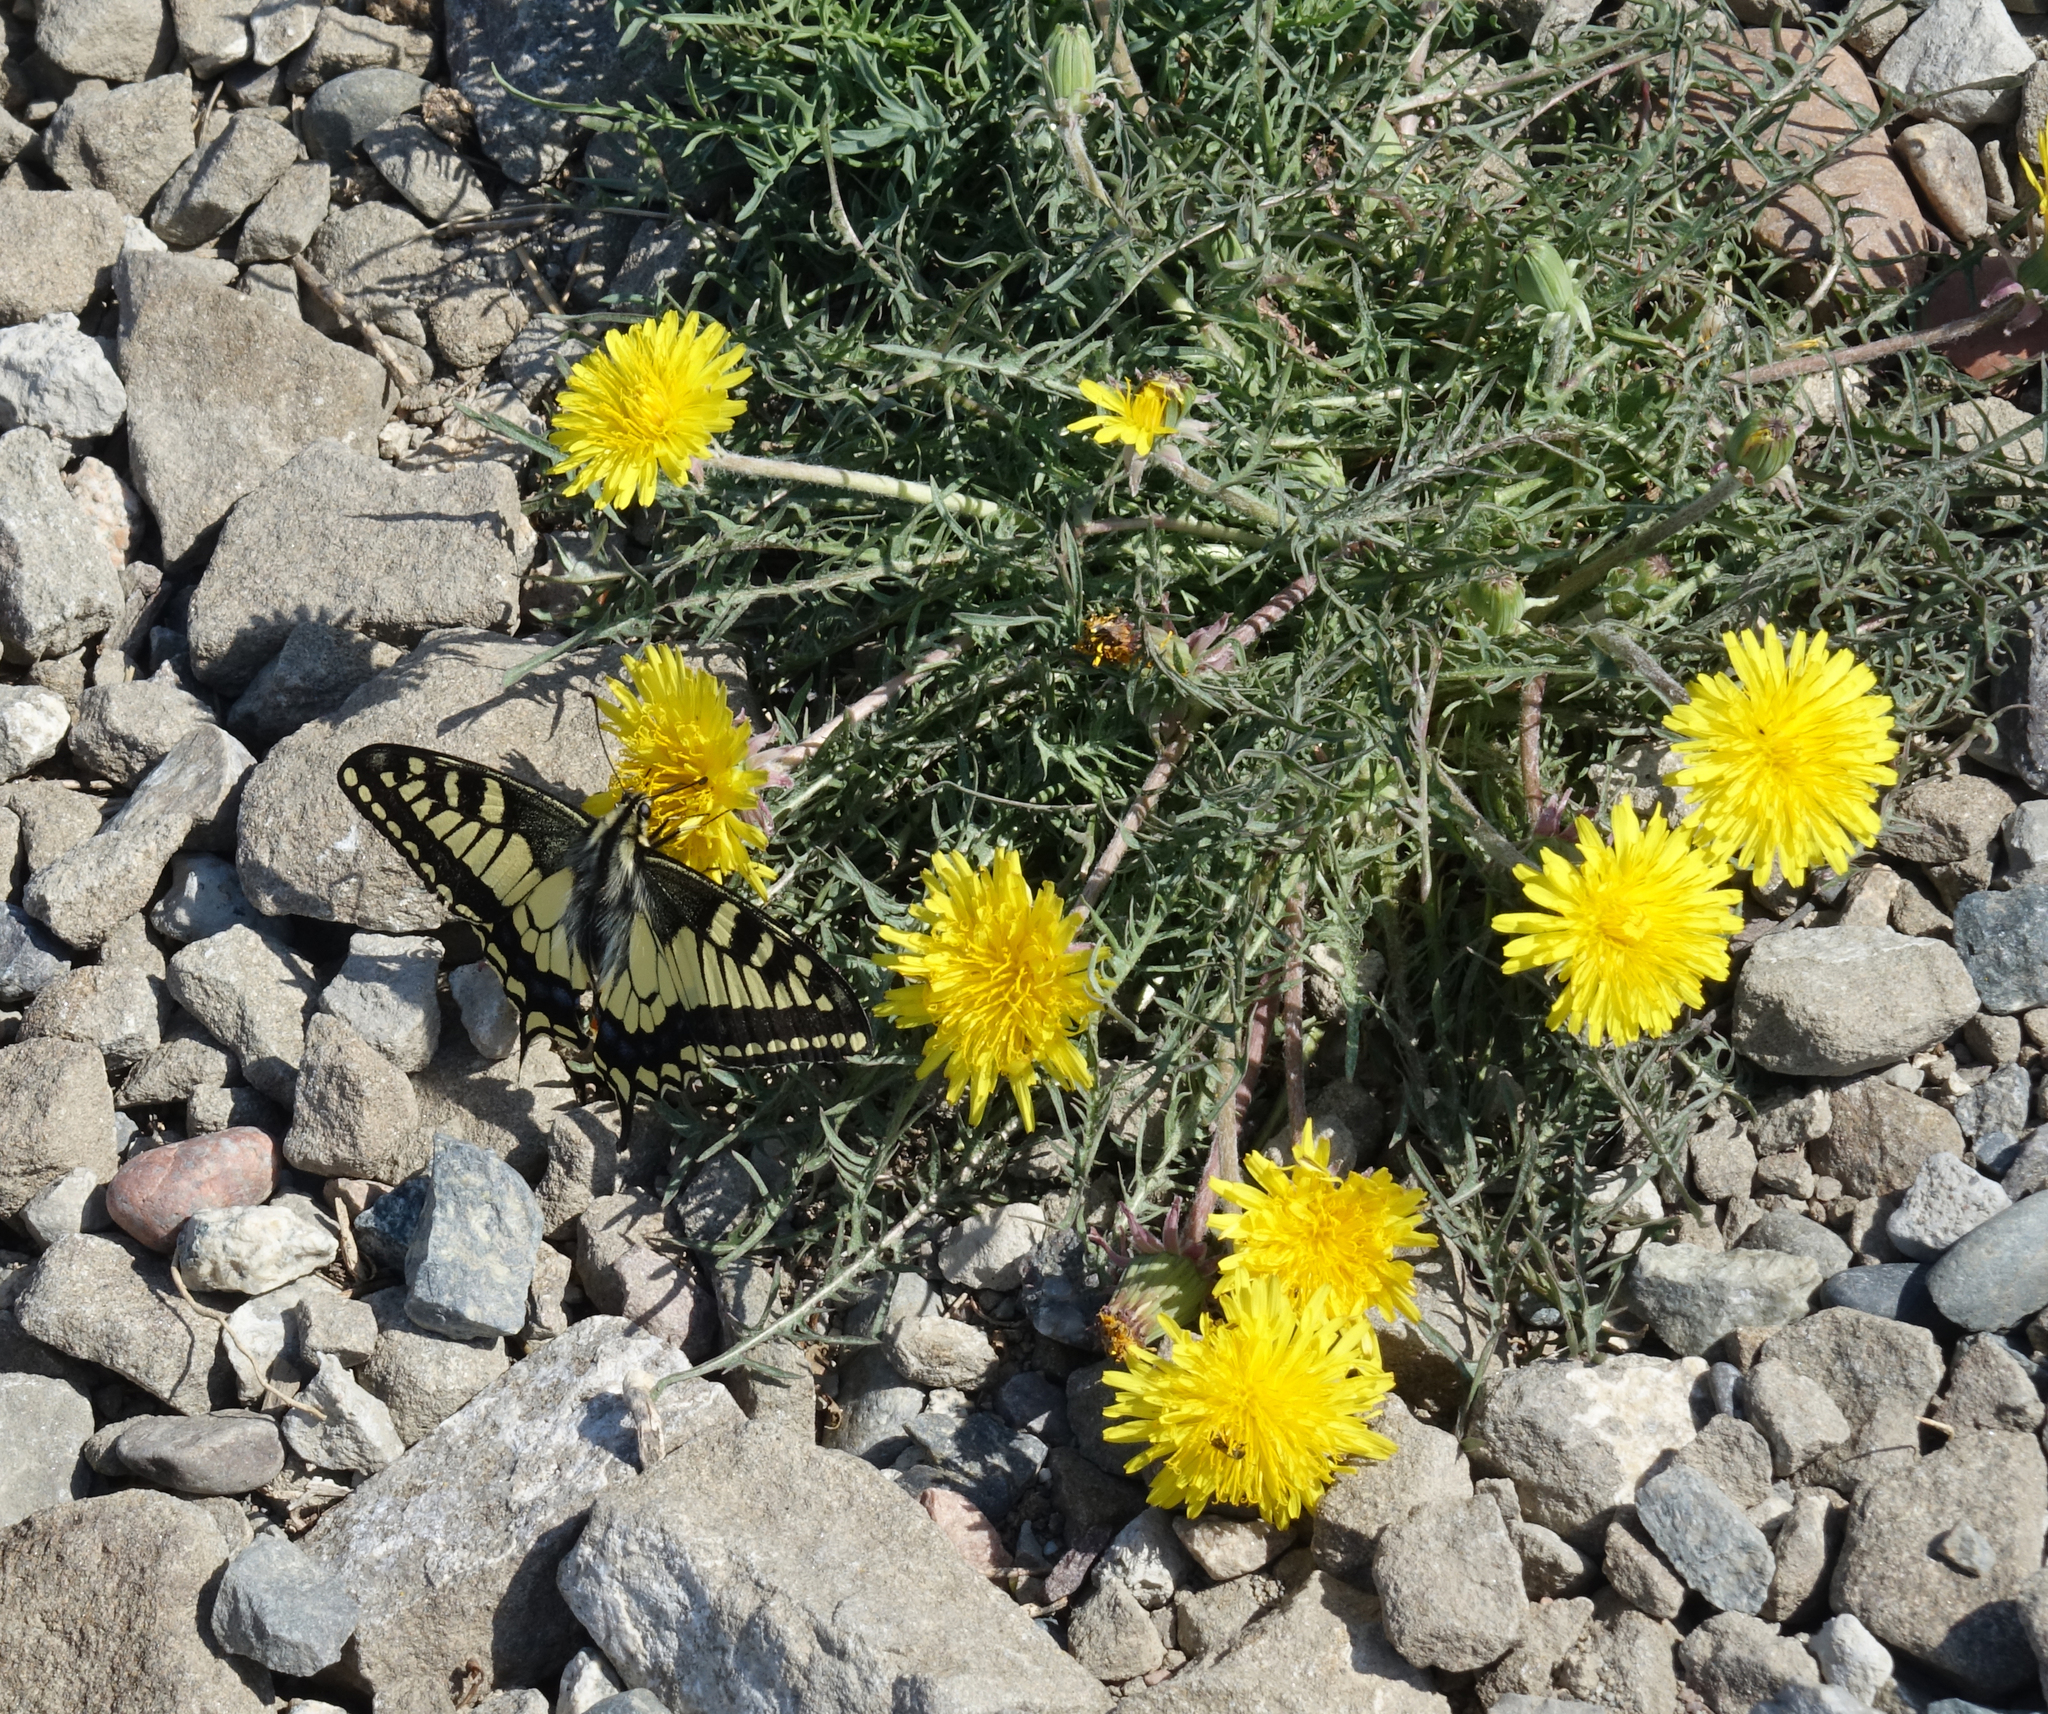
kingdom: Animalia
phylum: Arthropoda
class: Insecta
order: Lepidoptera
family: Papilionidae
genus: Papilio
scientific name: Papilio machaon
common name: Swallowtail
